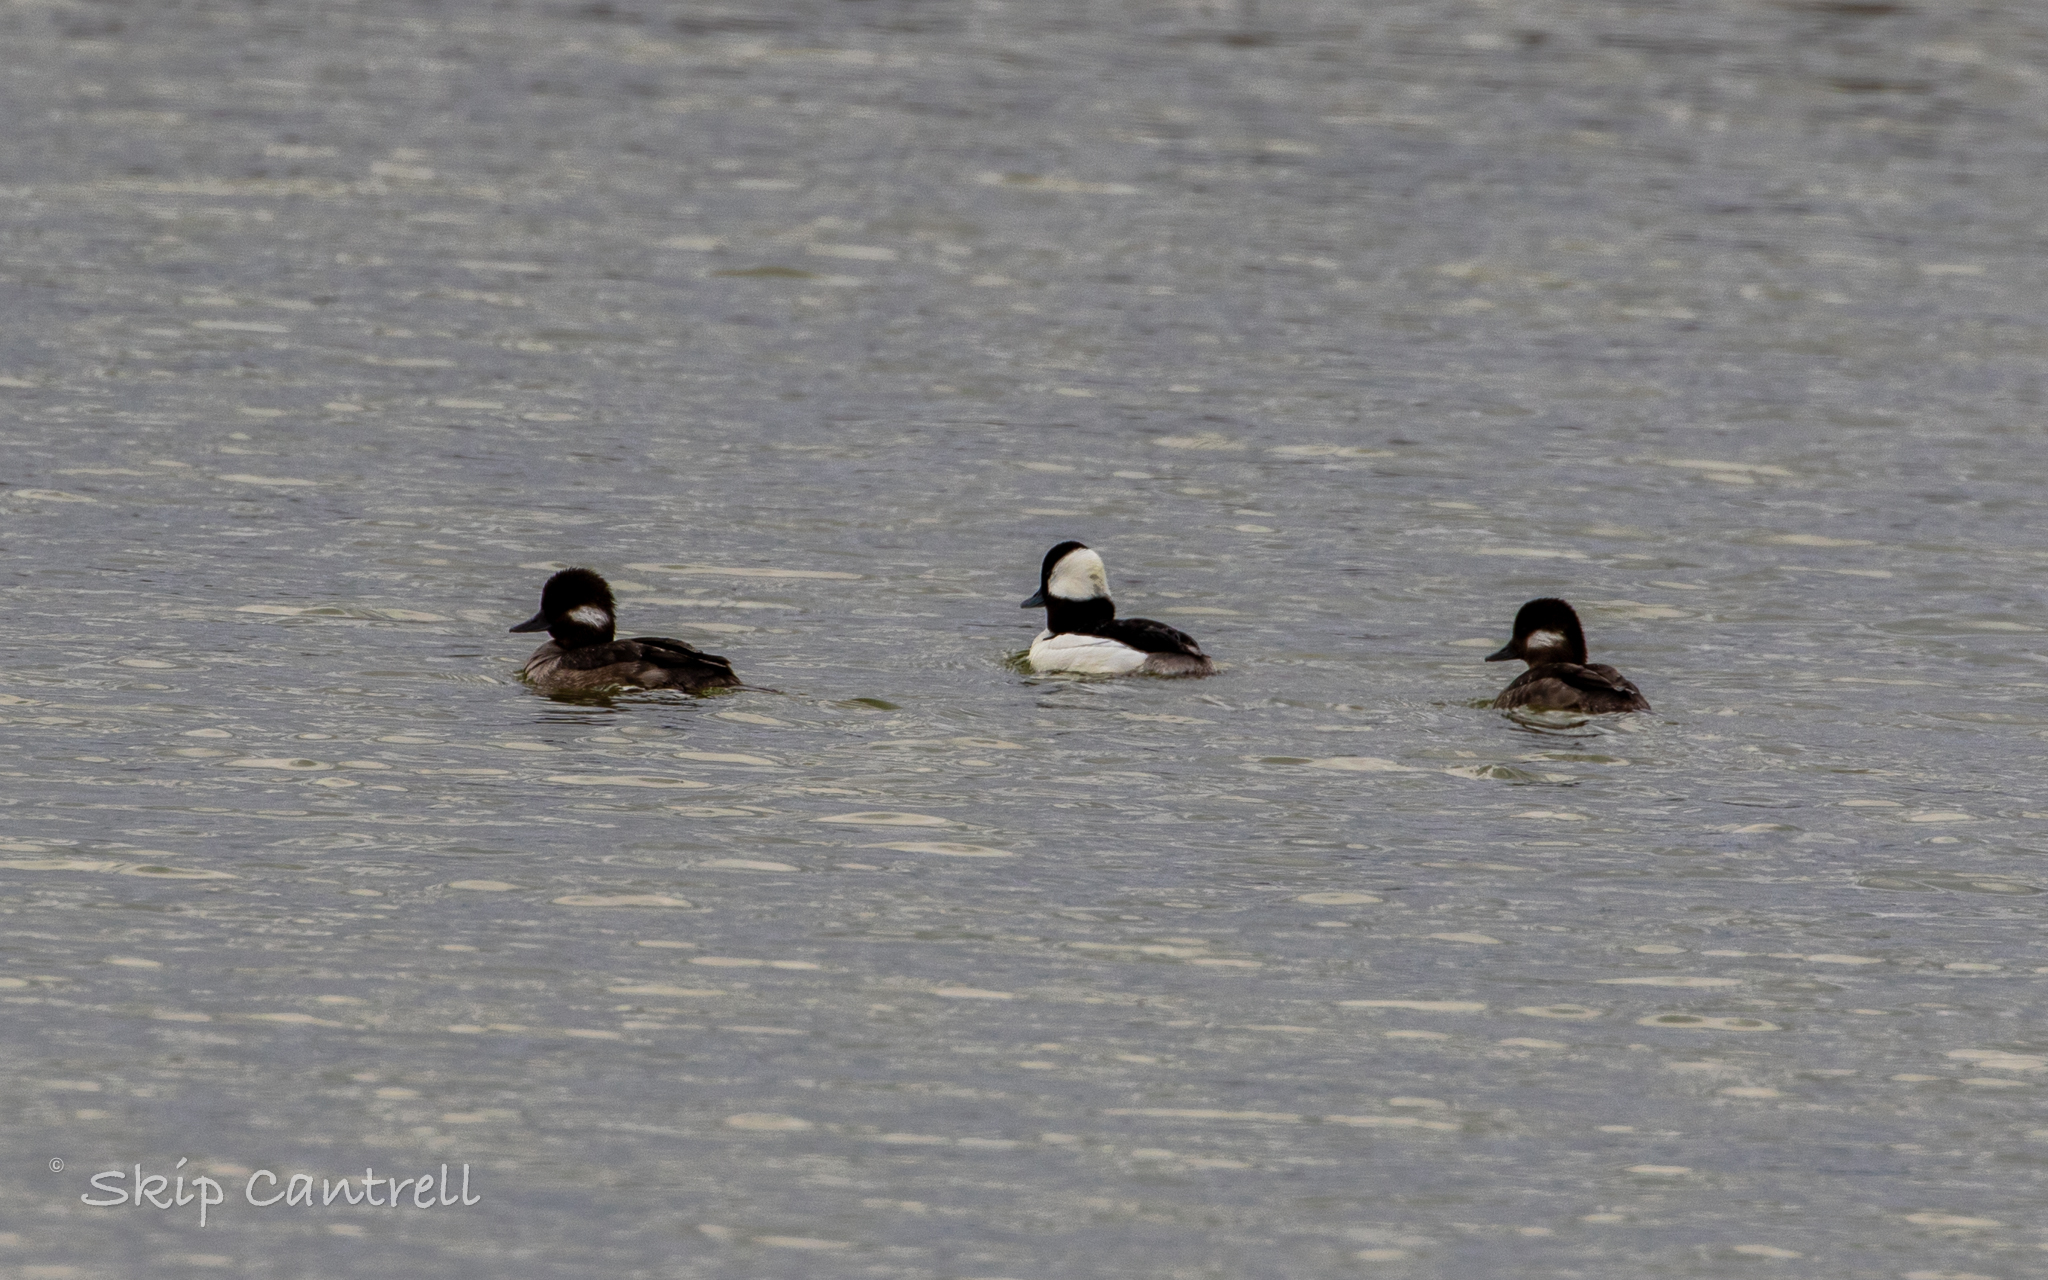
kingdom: Animalia
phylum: Chordata
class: Aves
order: Anseriformes
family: Anatidae
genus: Bucephala
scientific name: Bucephala albeola
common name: Bufflehead
